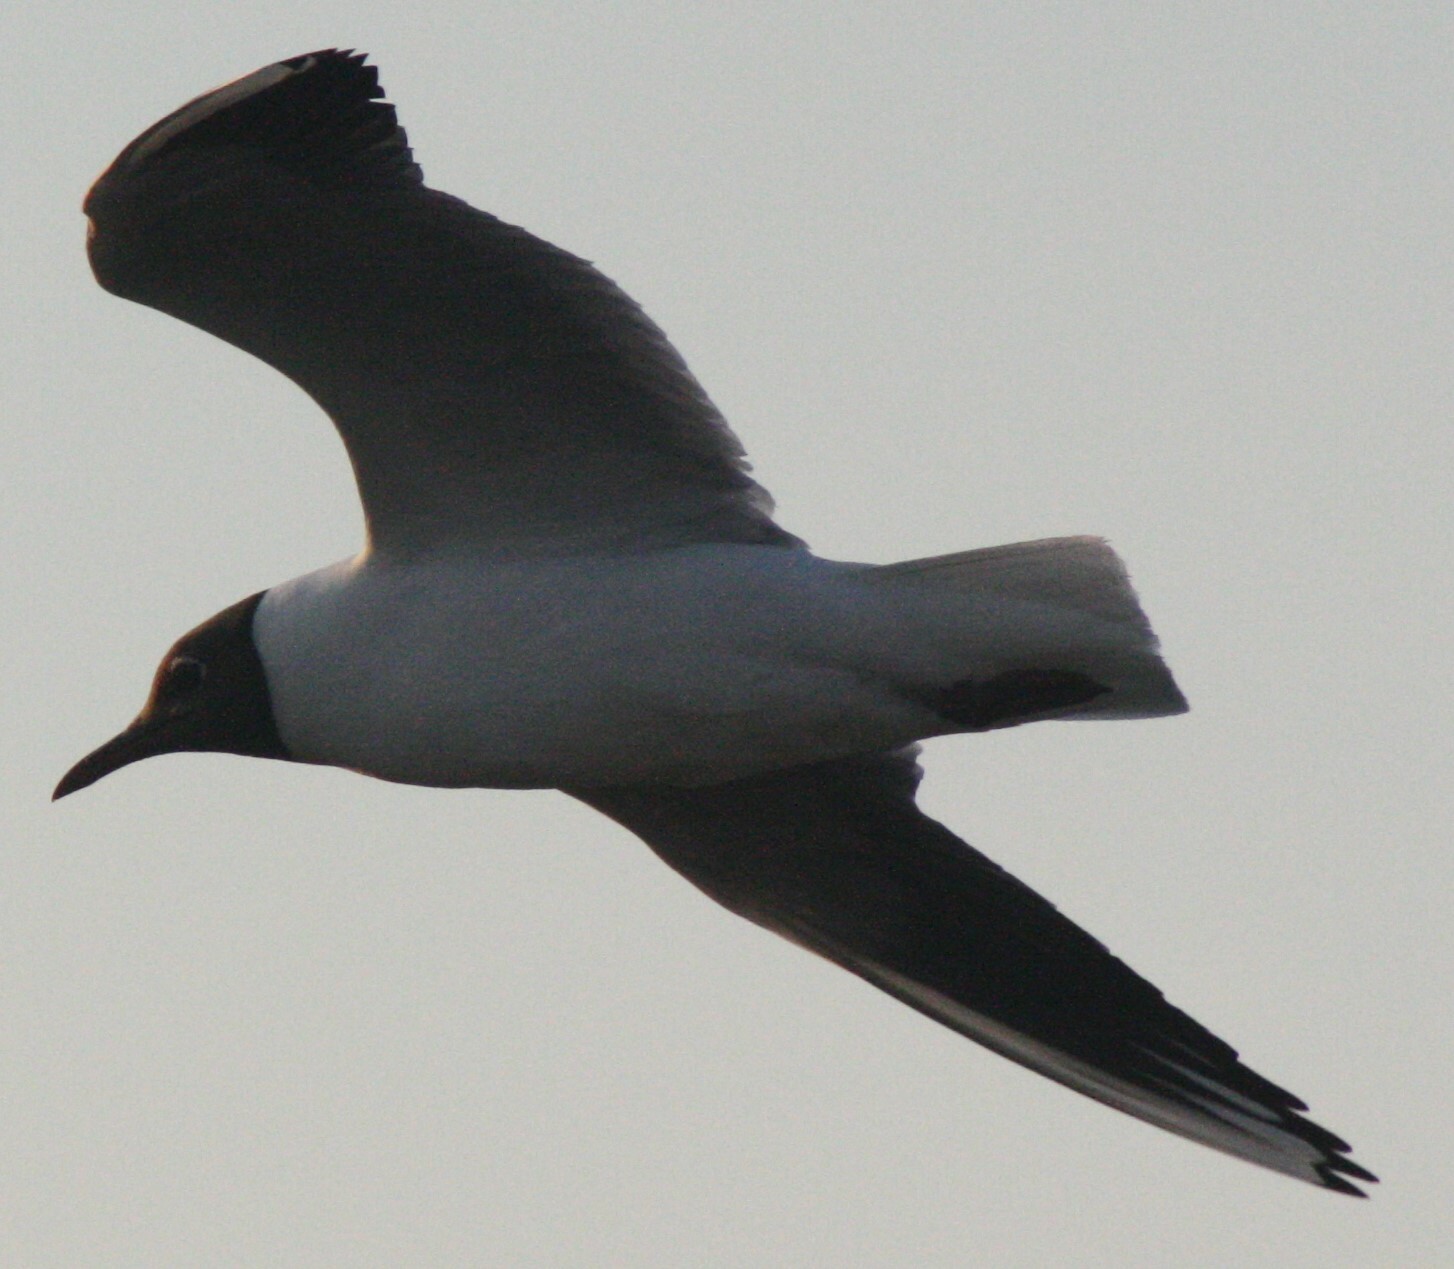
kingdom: Animalia
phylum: Chordata
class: Aves
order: Charadriiformes
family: Laridae
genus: Chroicocephalus
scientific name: Chroicocephalus ridibundus
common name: Black-headed gull
